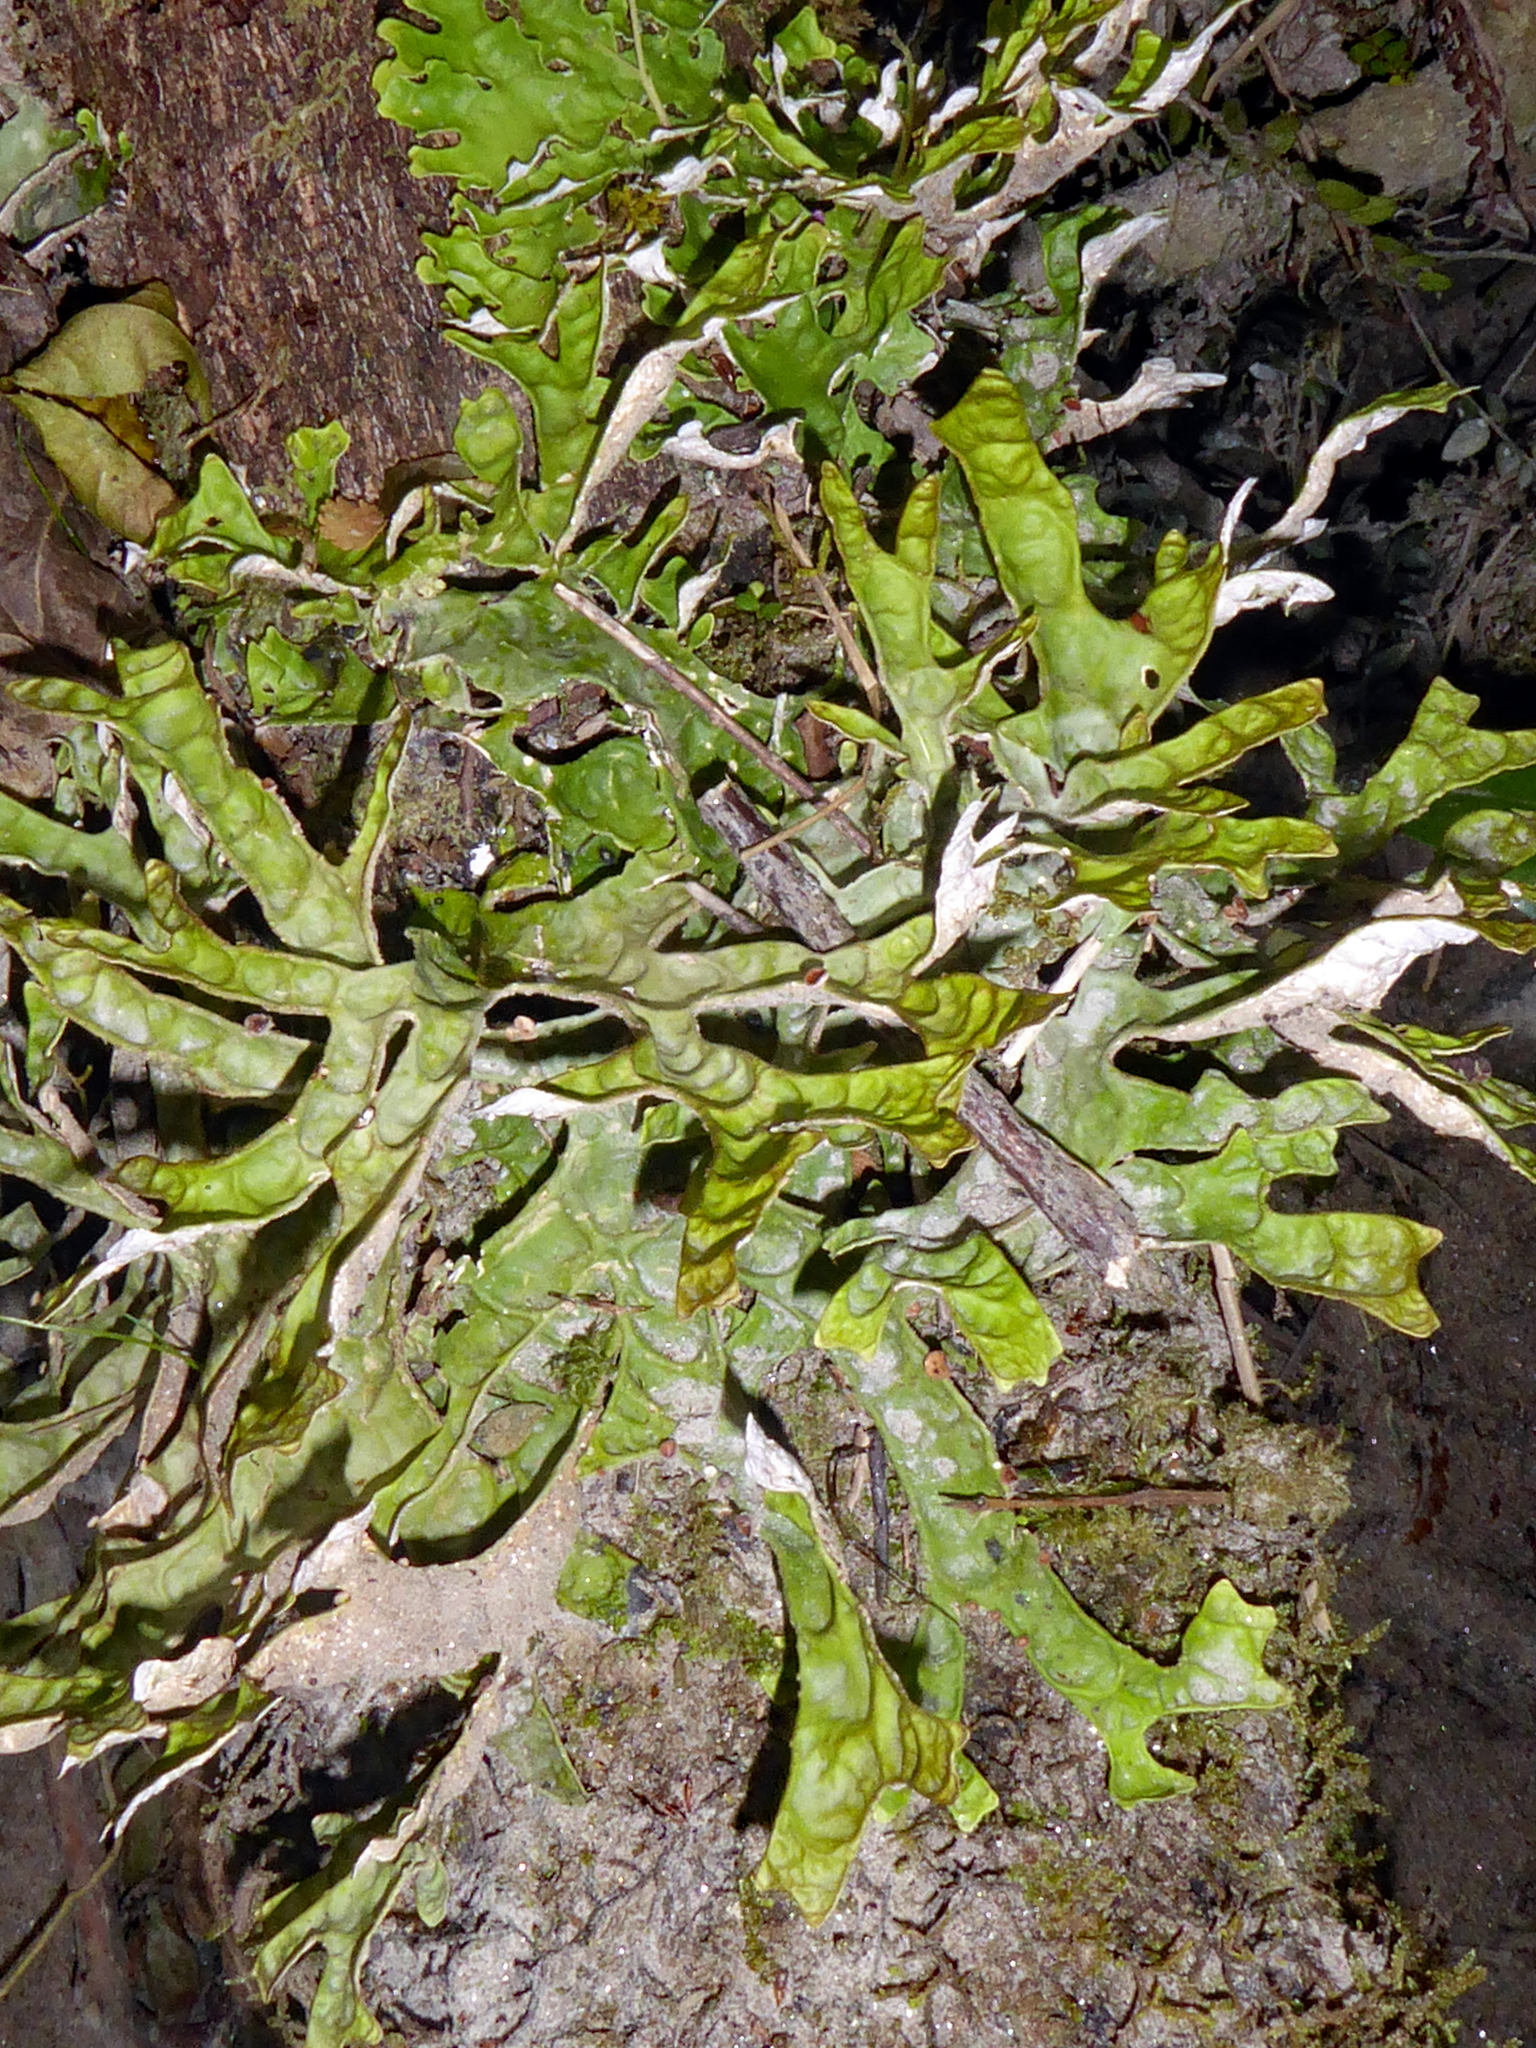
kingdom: Fungi
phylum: Ascomycota
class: Lecanoromycetes
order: Peltigerales
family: Lobariaceae
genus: Pseudocyphellaria
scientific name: Pseudocyphellaria rufovirescens
